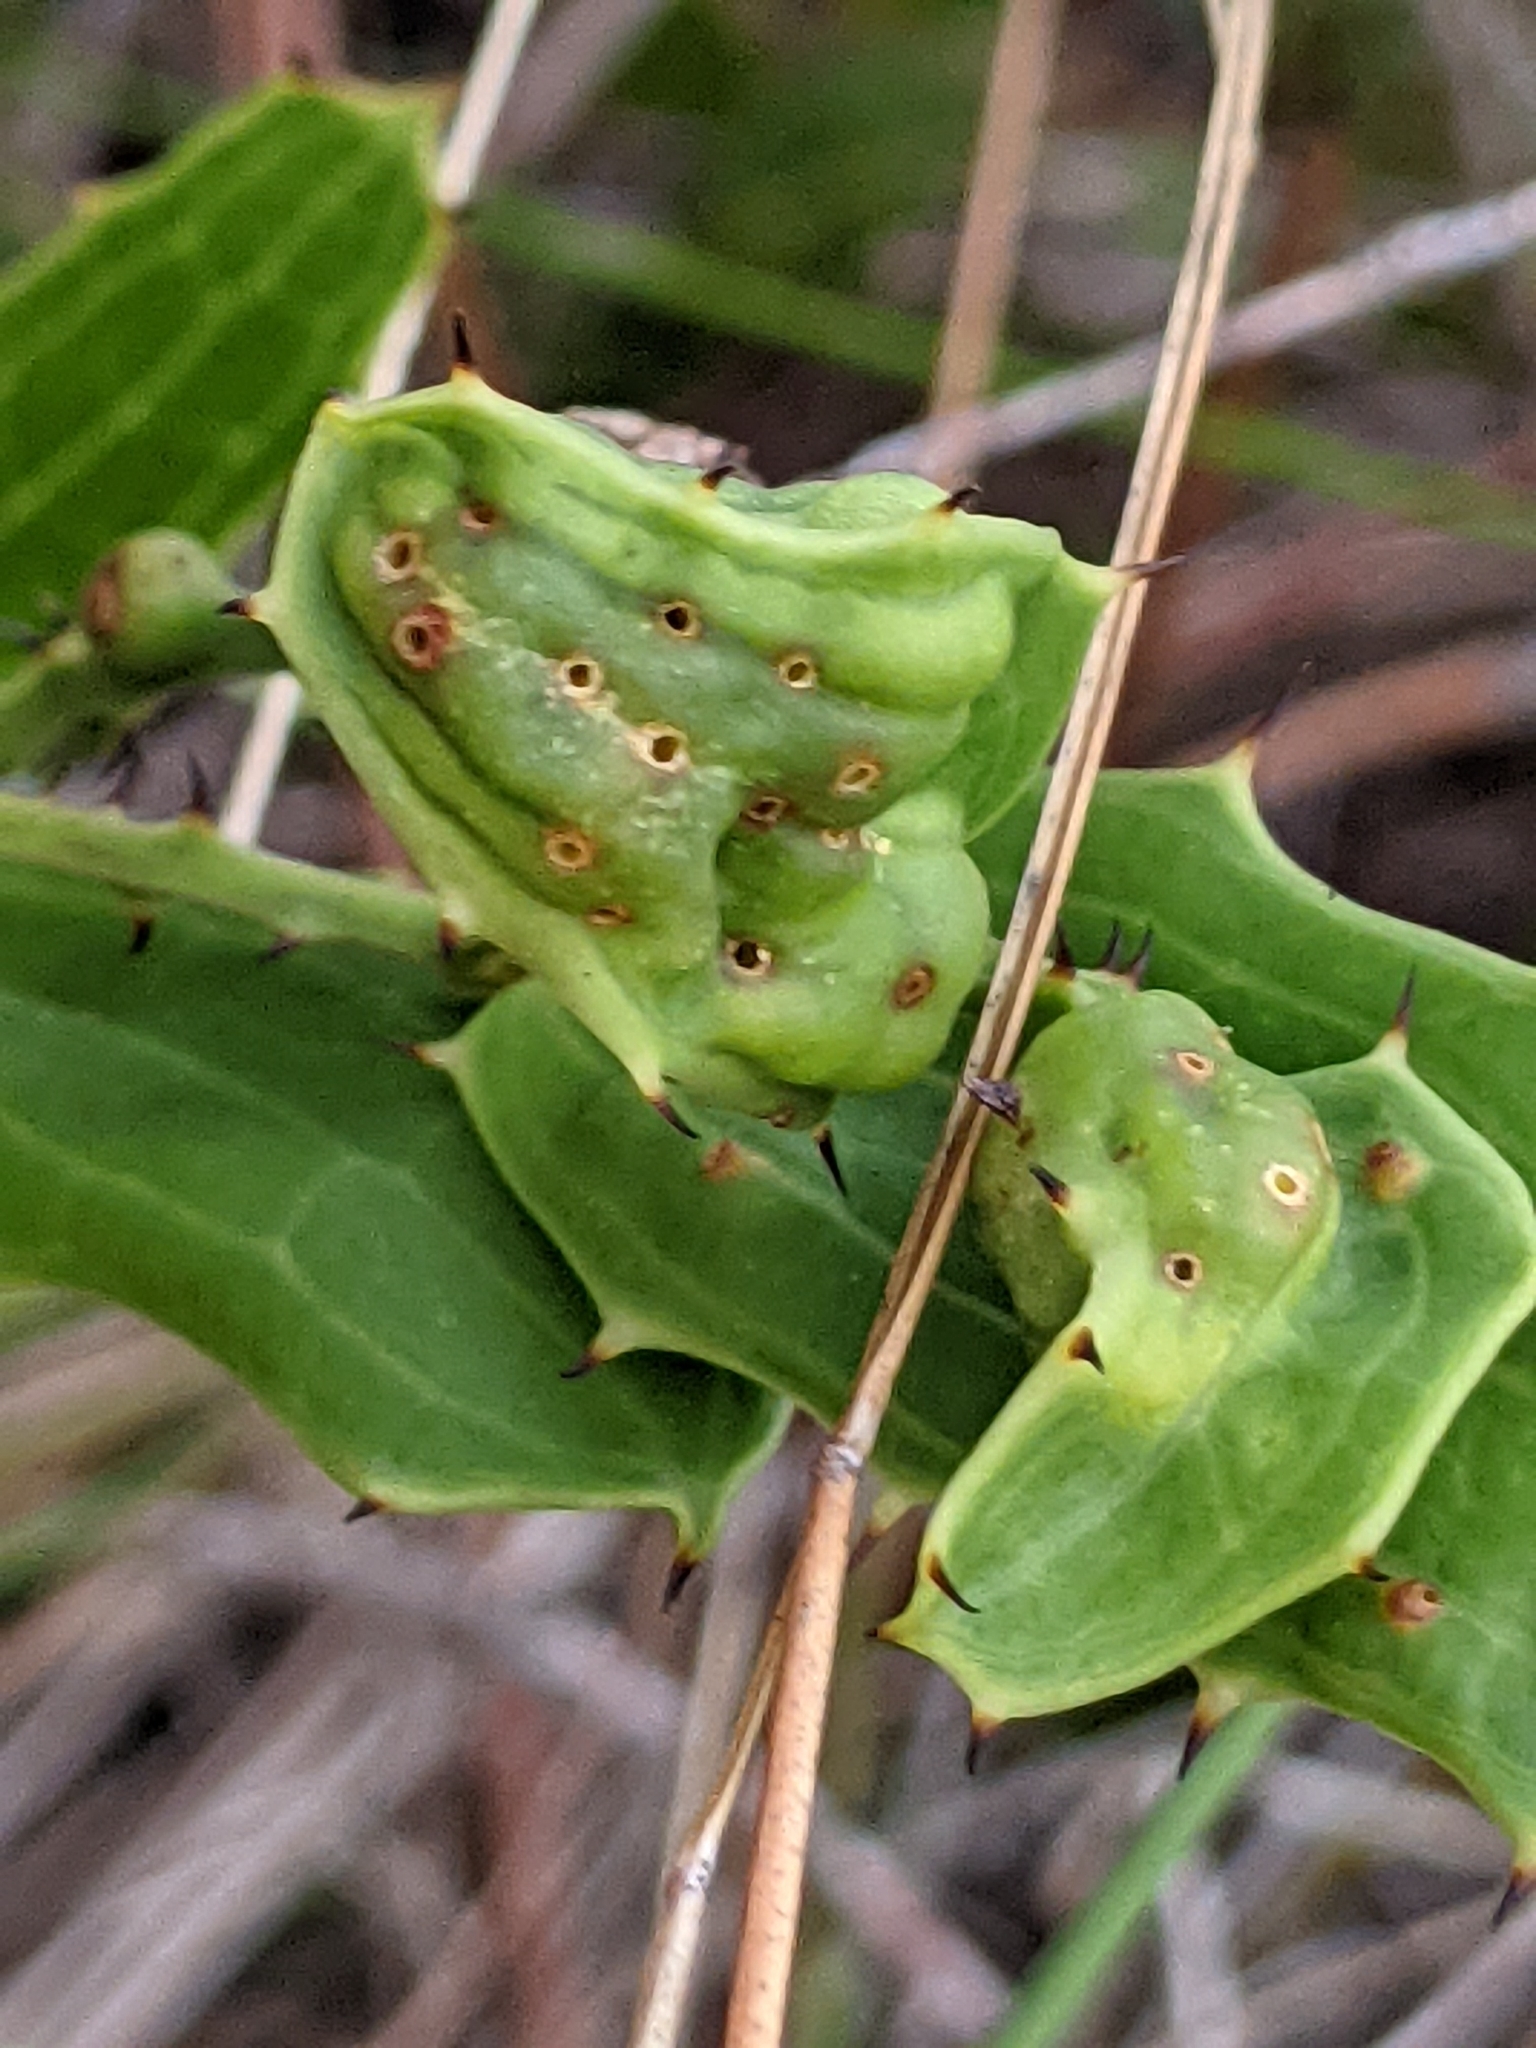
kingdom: Animalia
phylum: Arthropoda
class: Insecta
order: Hymenoptera
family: Eulophidae
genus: Aprostocetus
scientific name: Aprostocetus smilax
